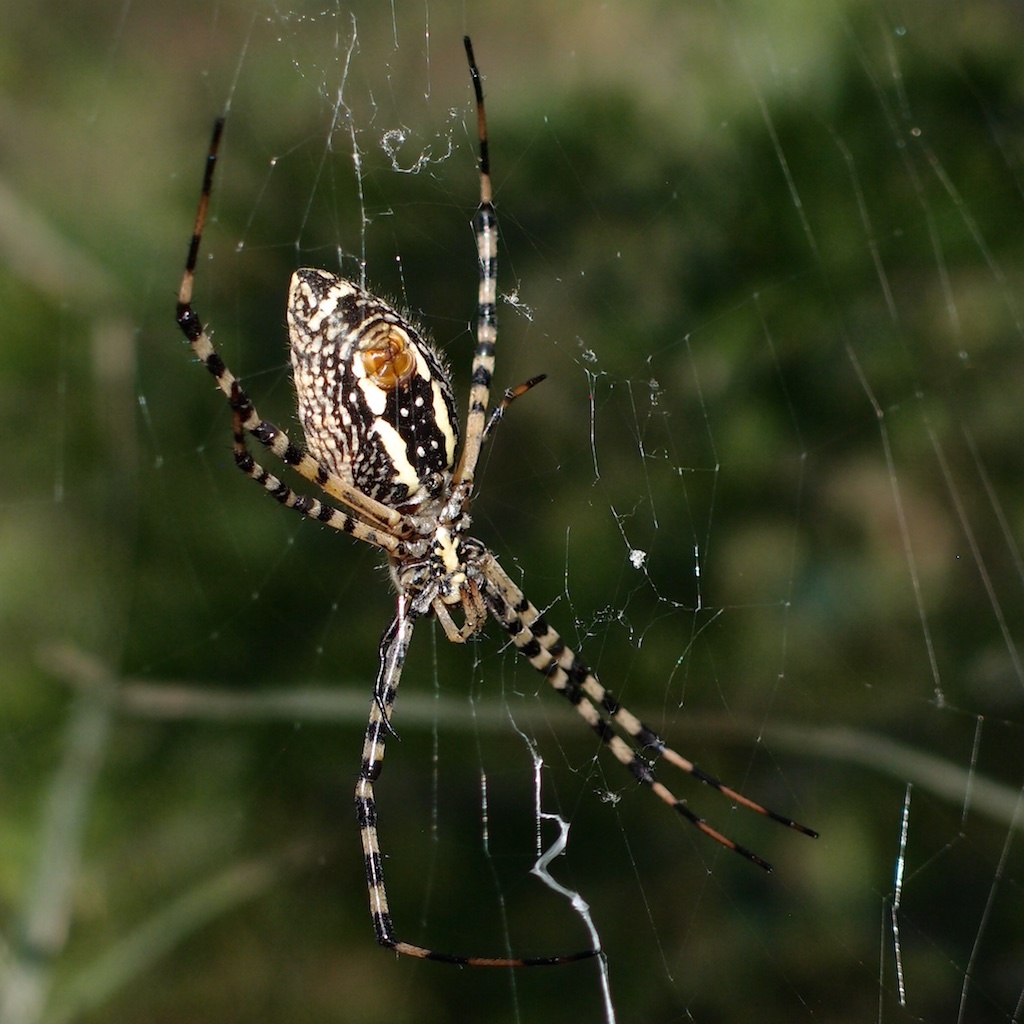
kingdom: Animalia
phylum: Arthropoda
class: Arachnida
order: Araneae
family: Araneidae
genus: Argiope
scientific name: Argiope trifasciata
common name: Banded garden spider
